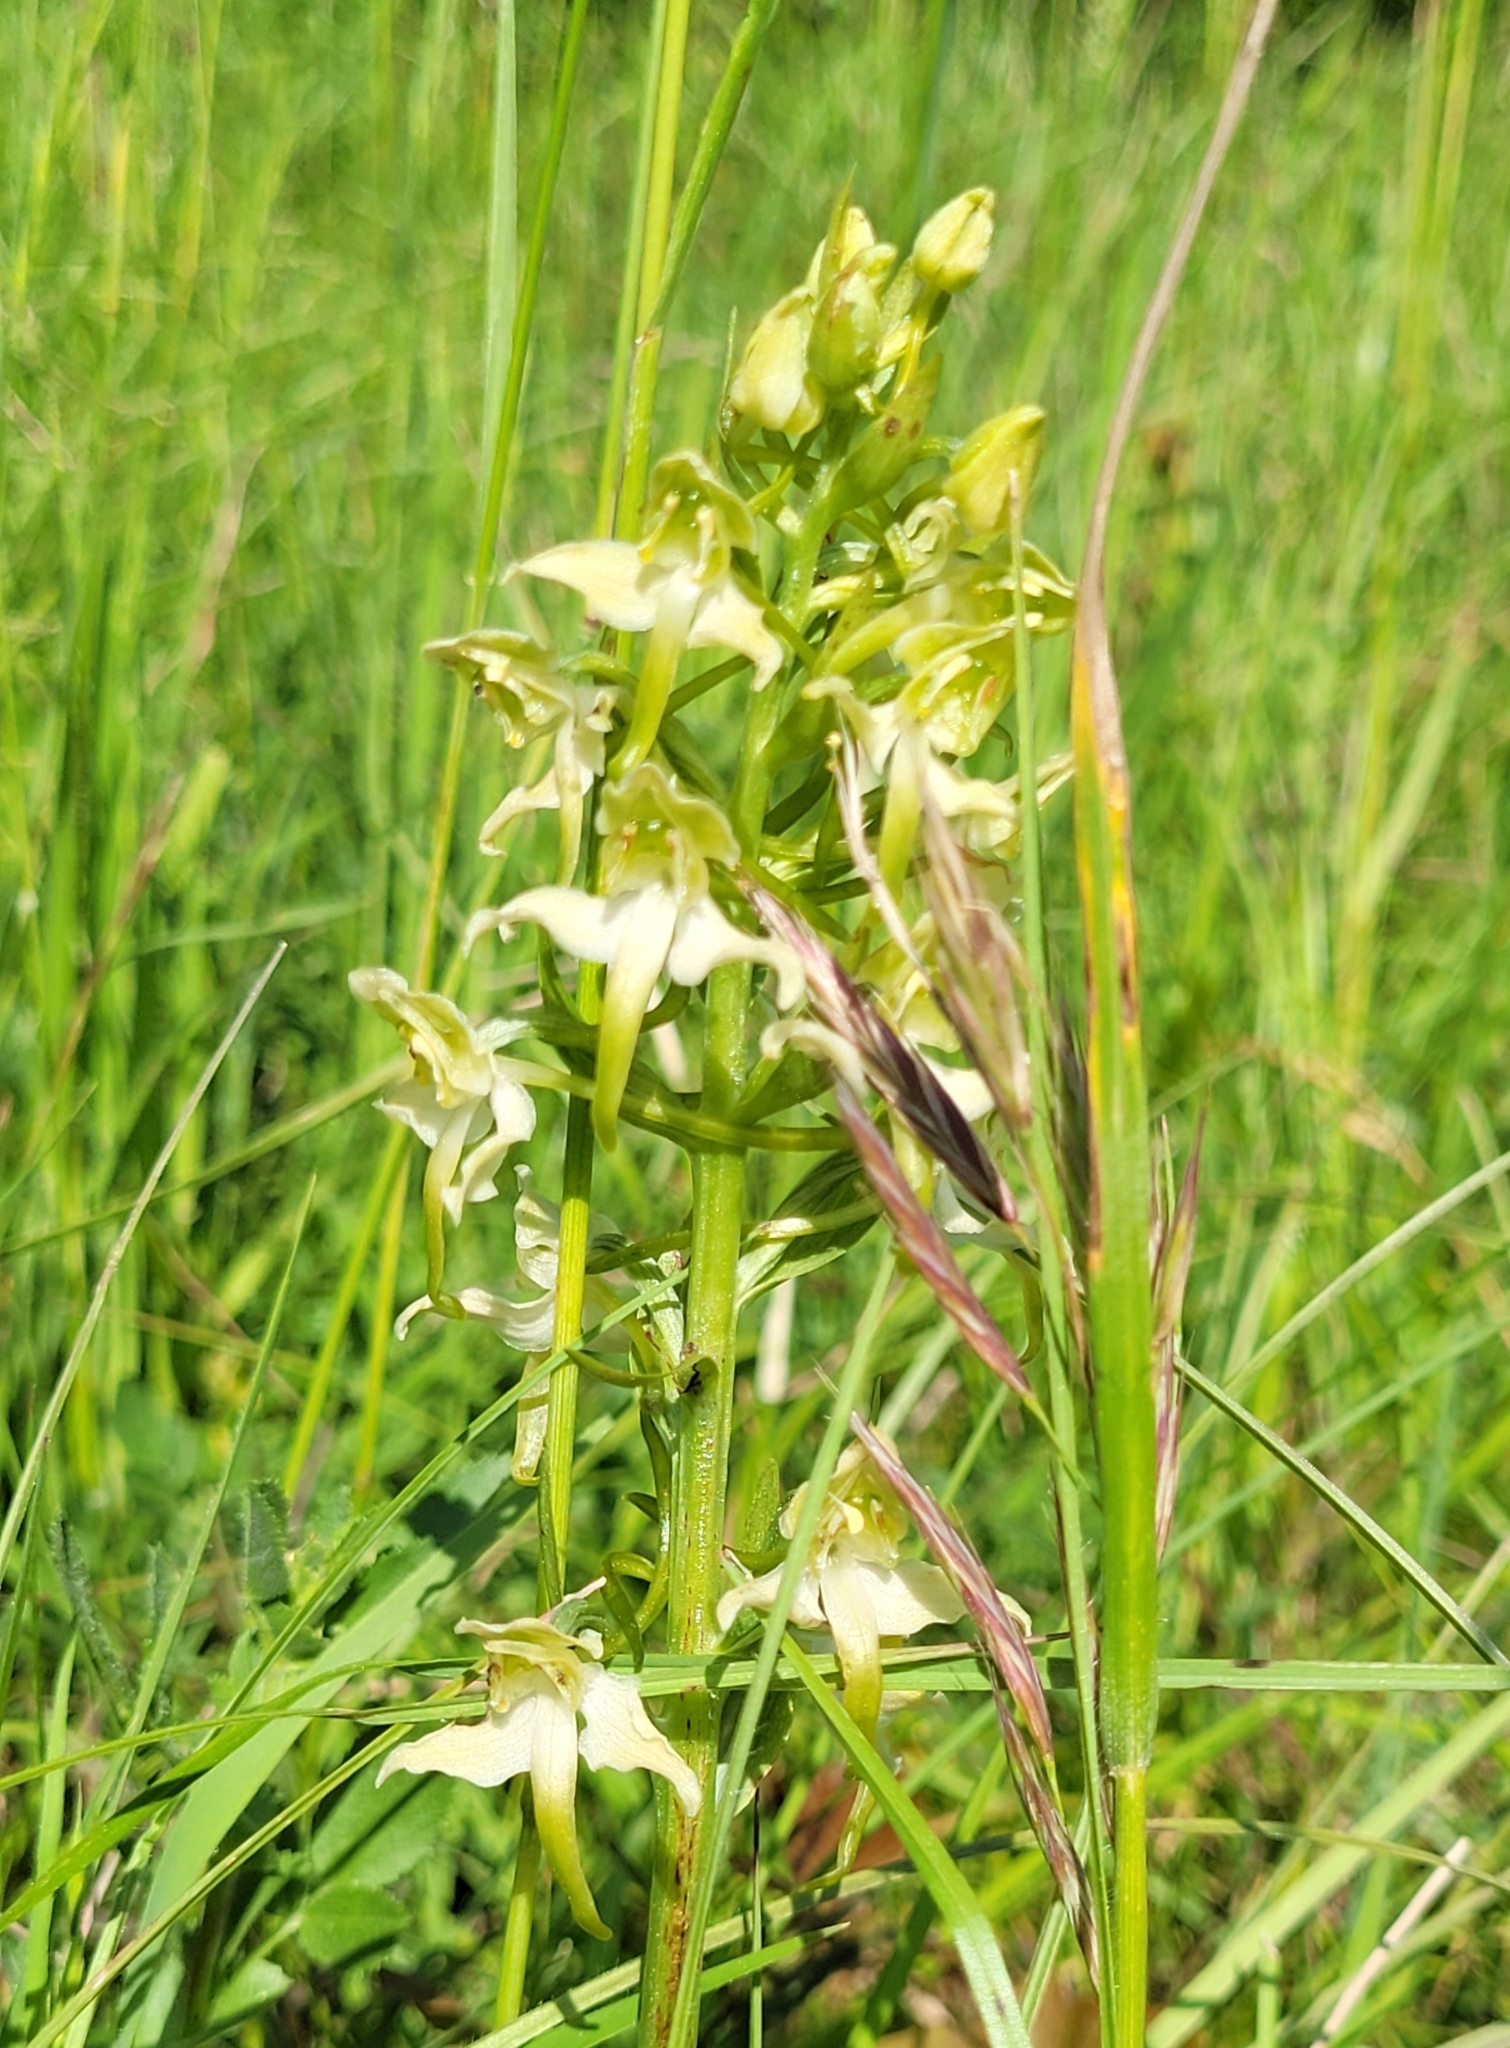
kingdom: Plantae
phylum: Tracheophyta
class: Liliopsida
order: Asparagales
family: Orchidaceae
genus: Platanthera
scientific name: Platanthera chlorantha
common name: Greater butterfly-orchid
